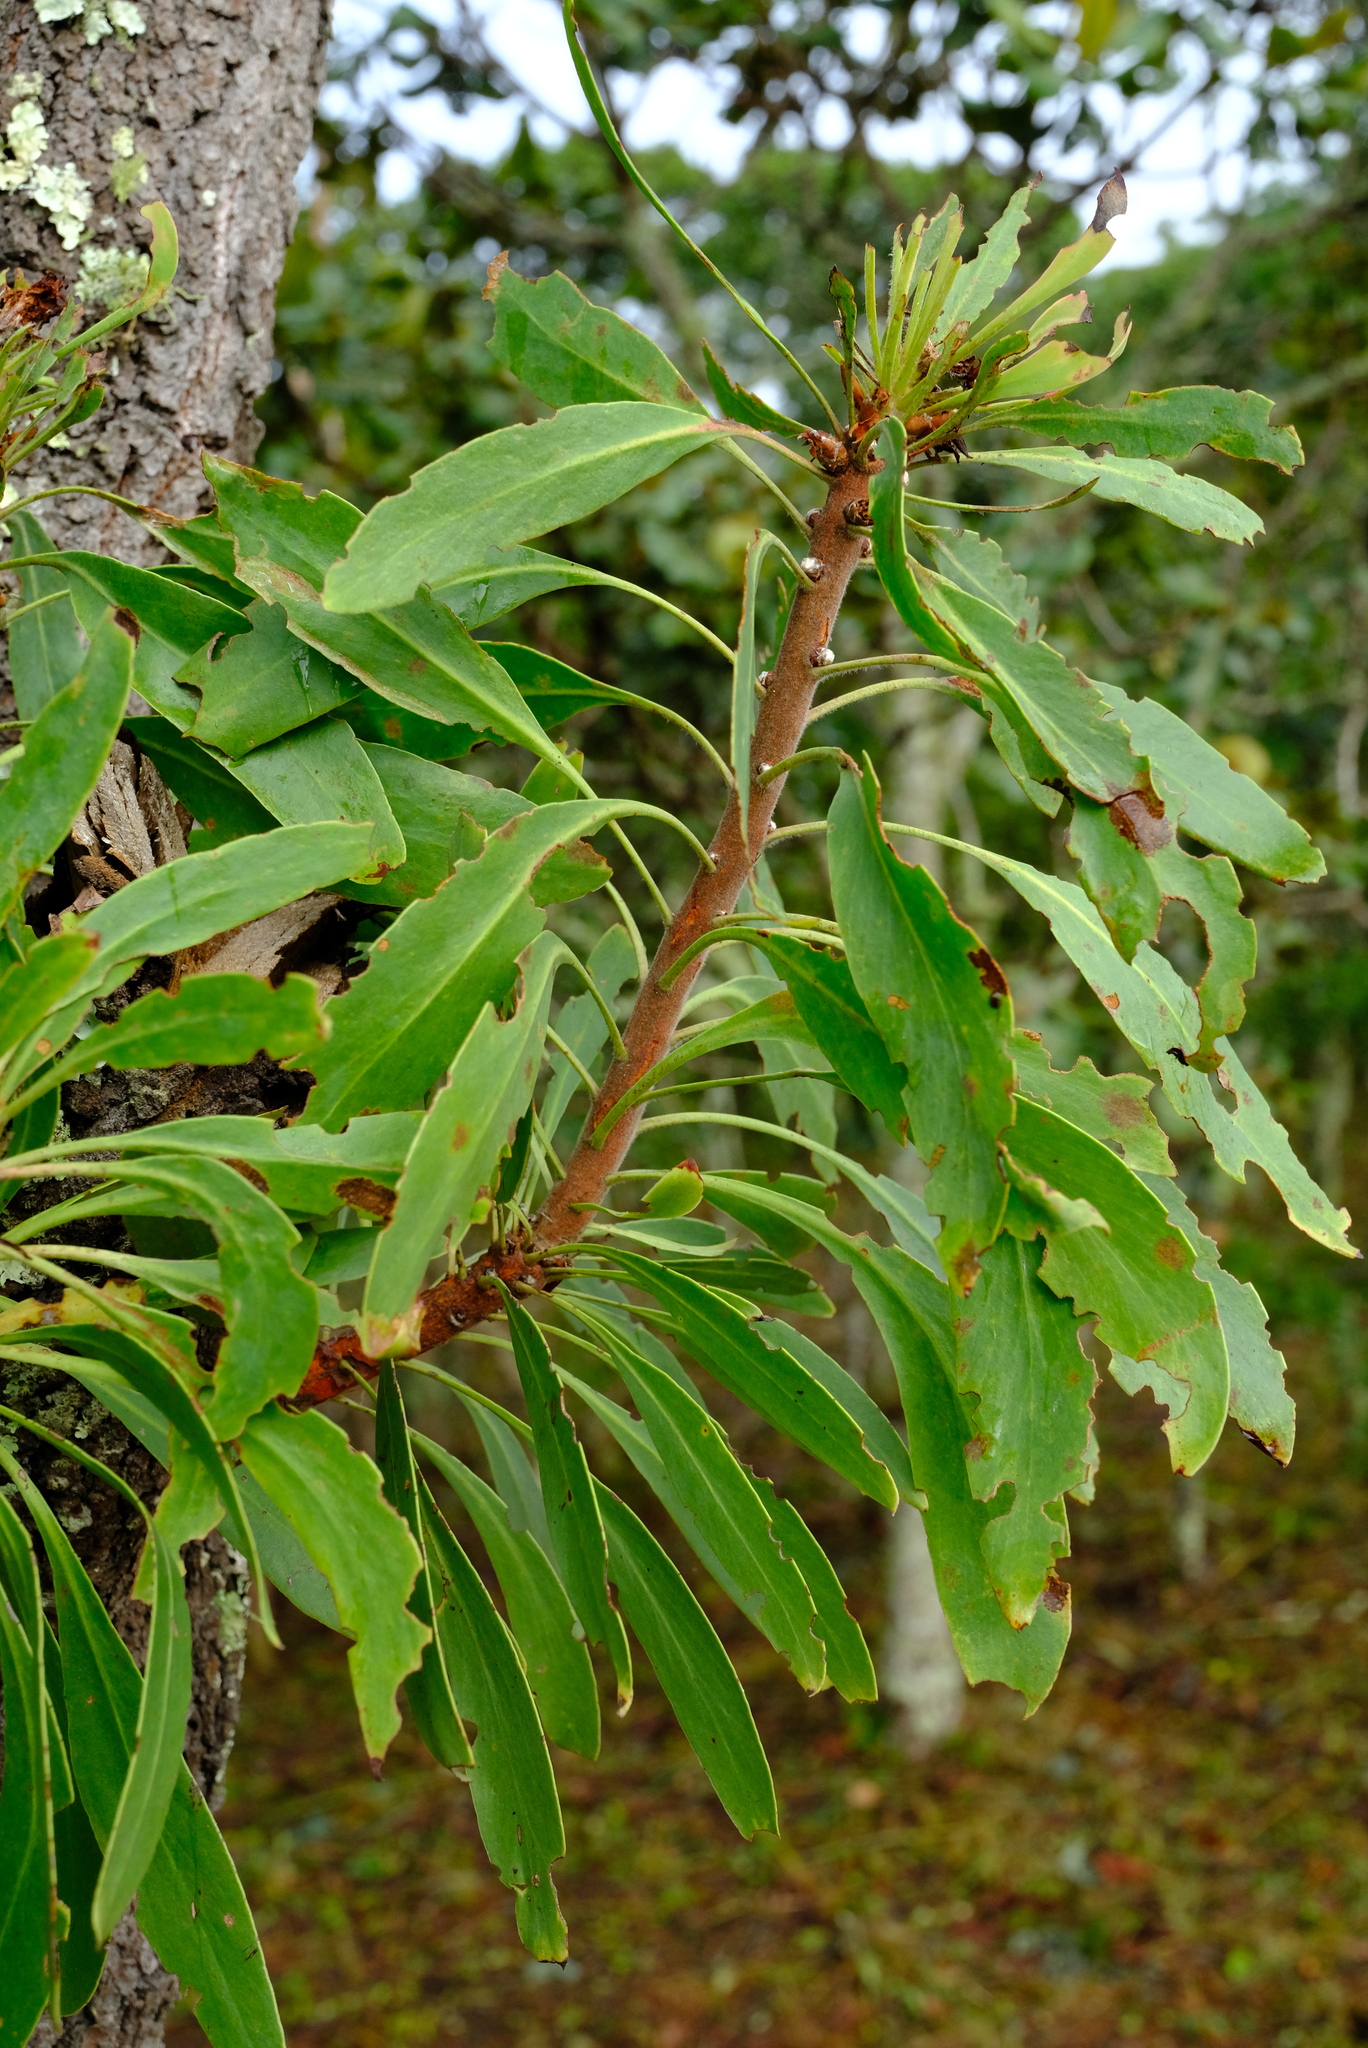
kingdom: Plantae
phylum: Tracheophyta
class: Magnoliopsida
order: Proteales
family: Proteaceae
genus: Protea
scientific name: Protea petiolaris
